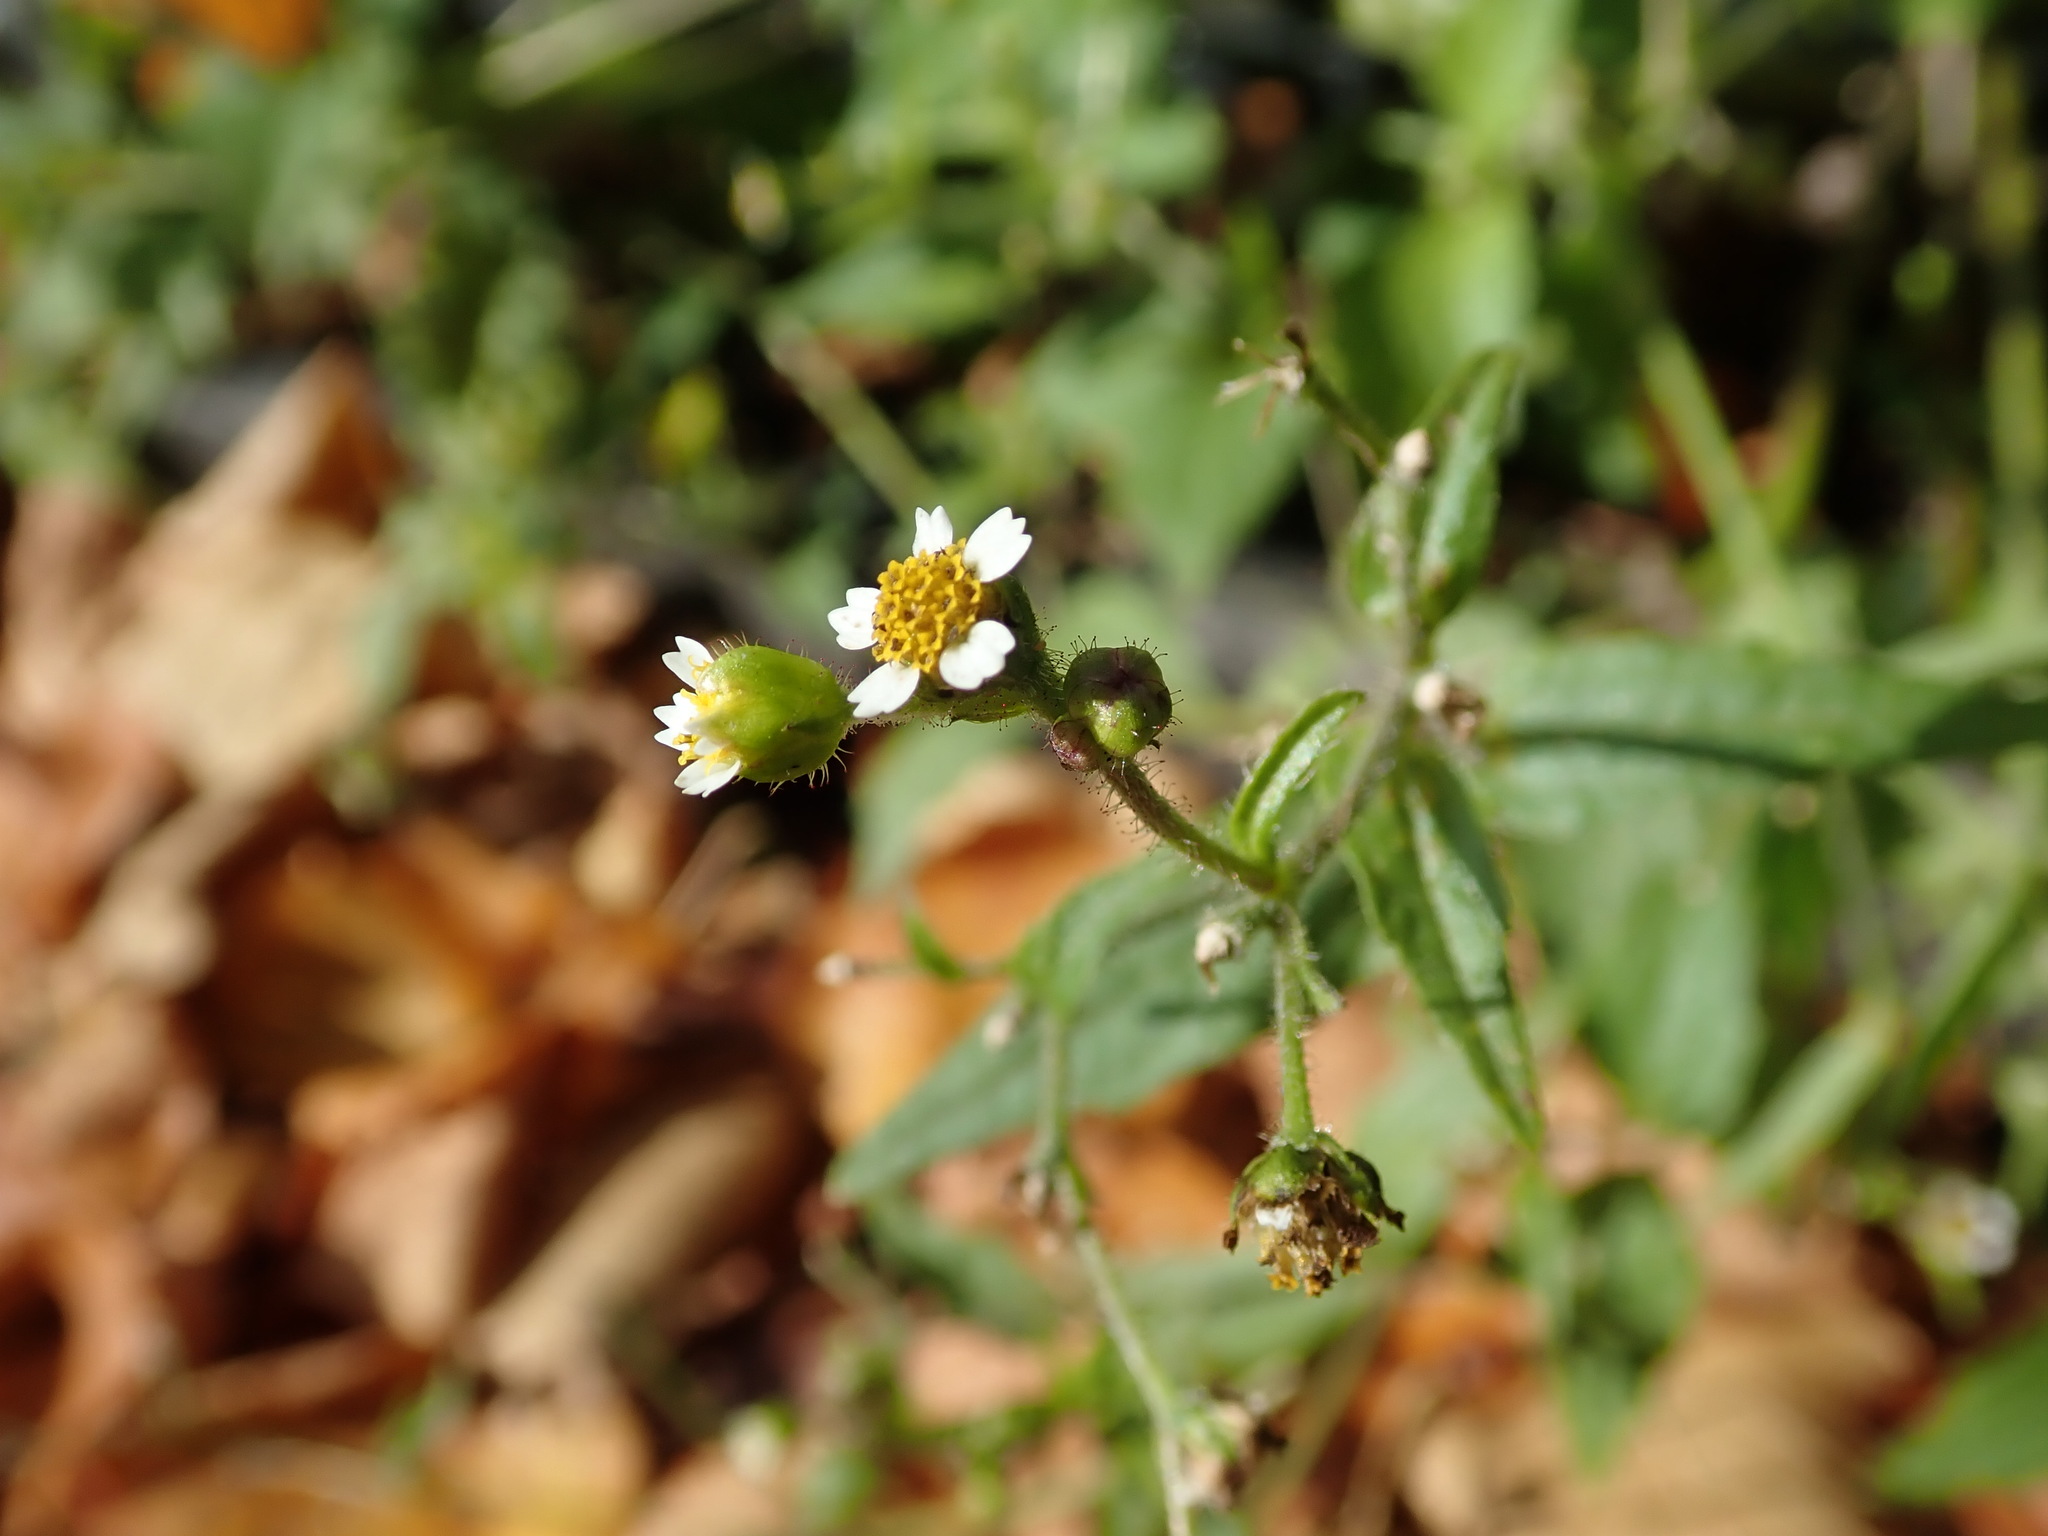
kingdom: Plantae
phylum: Tracheophyta
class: Magnoliopsida
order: Asterales
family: Asteraceae
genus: Galinsoga
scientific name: Galinsoga quadriradiata
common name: Shaggy soldier
